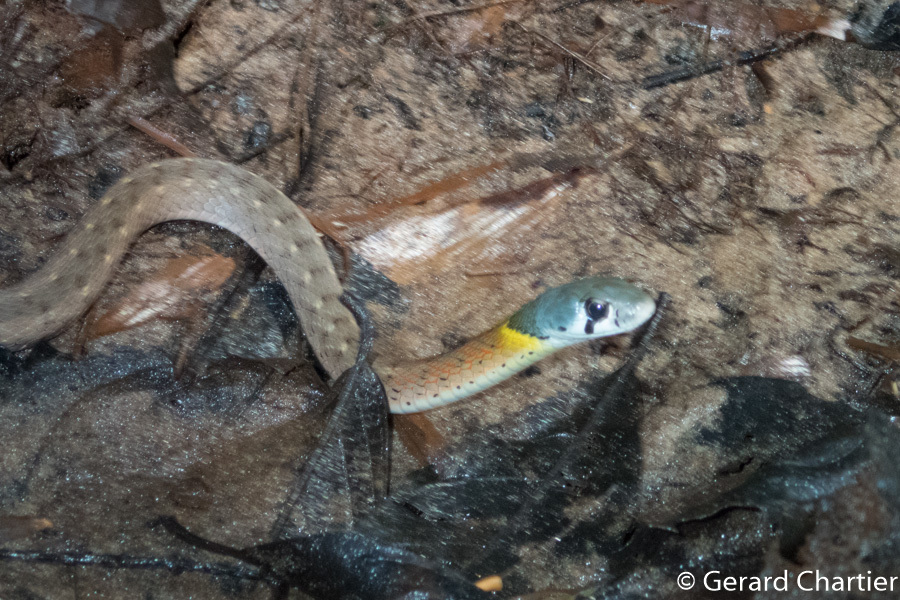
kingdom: Animalia
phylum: Chordata
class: Squamata
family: Colubridae
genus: Rhabdophis
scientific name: Rhabdophis
